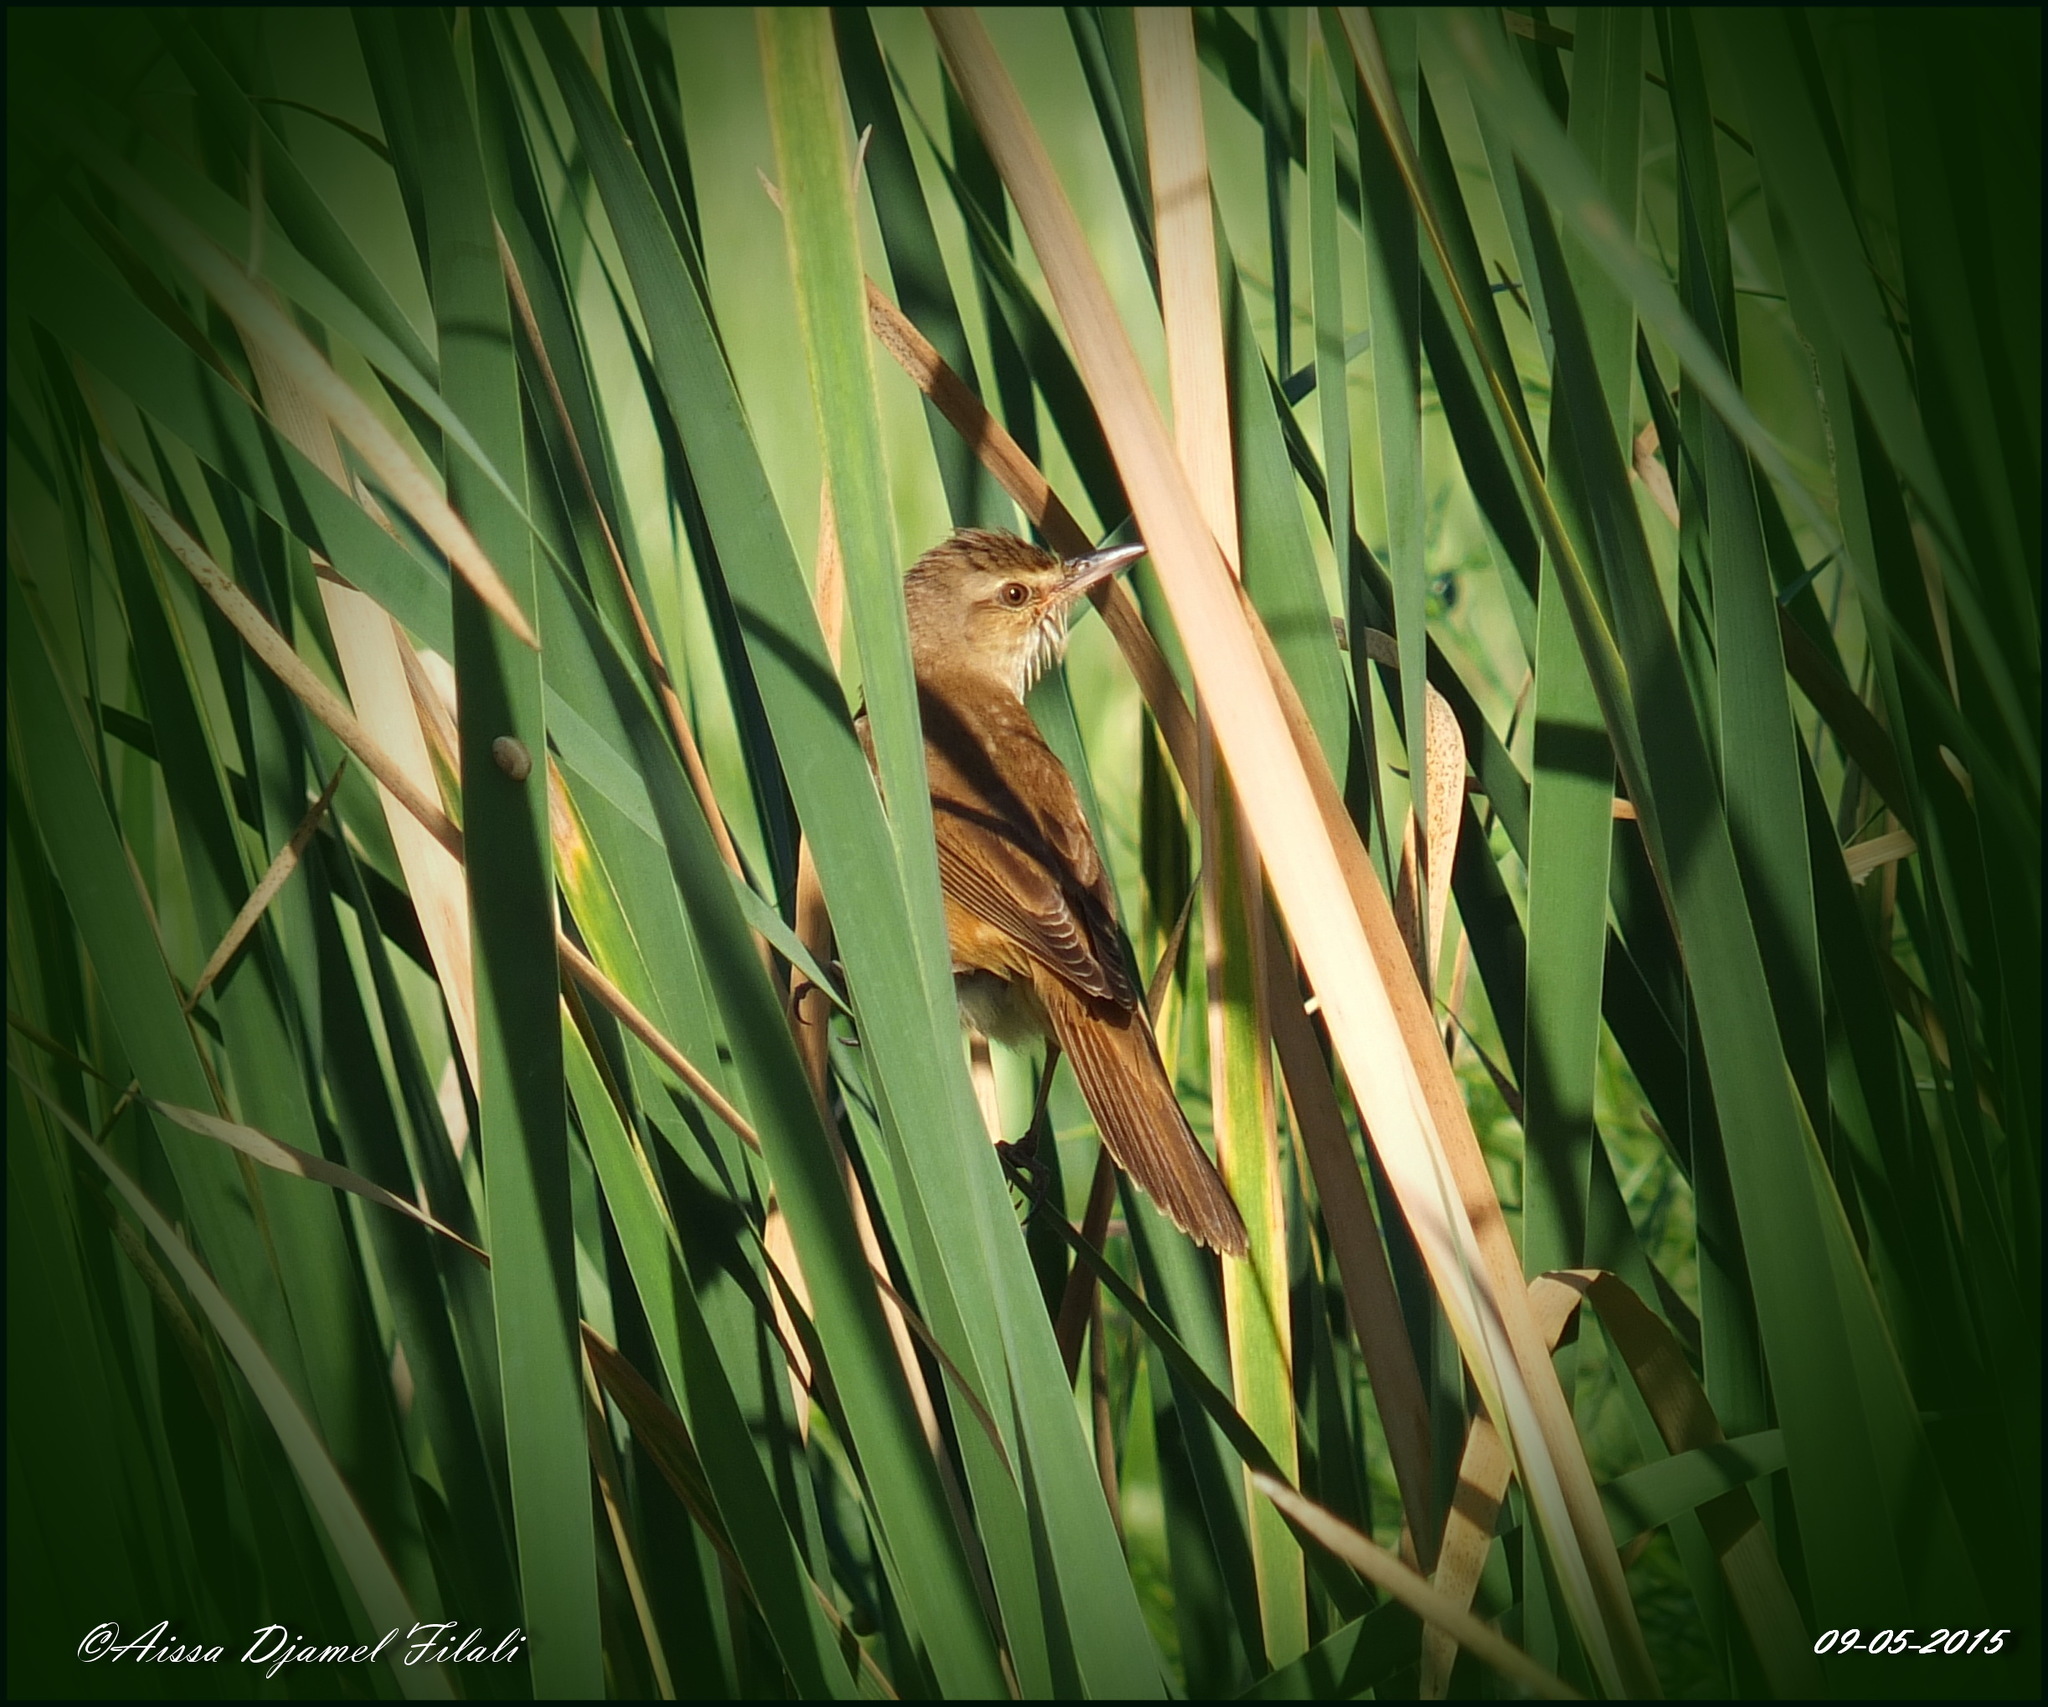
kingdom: Animalia
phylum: Chordata
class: Aves
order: Passeriformes
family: Acrocephalidae
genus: Acrocephalus
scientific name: Acrocephalus arundinaceus
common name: Great reed warbler
